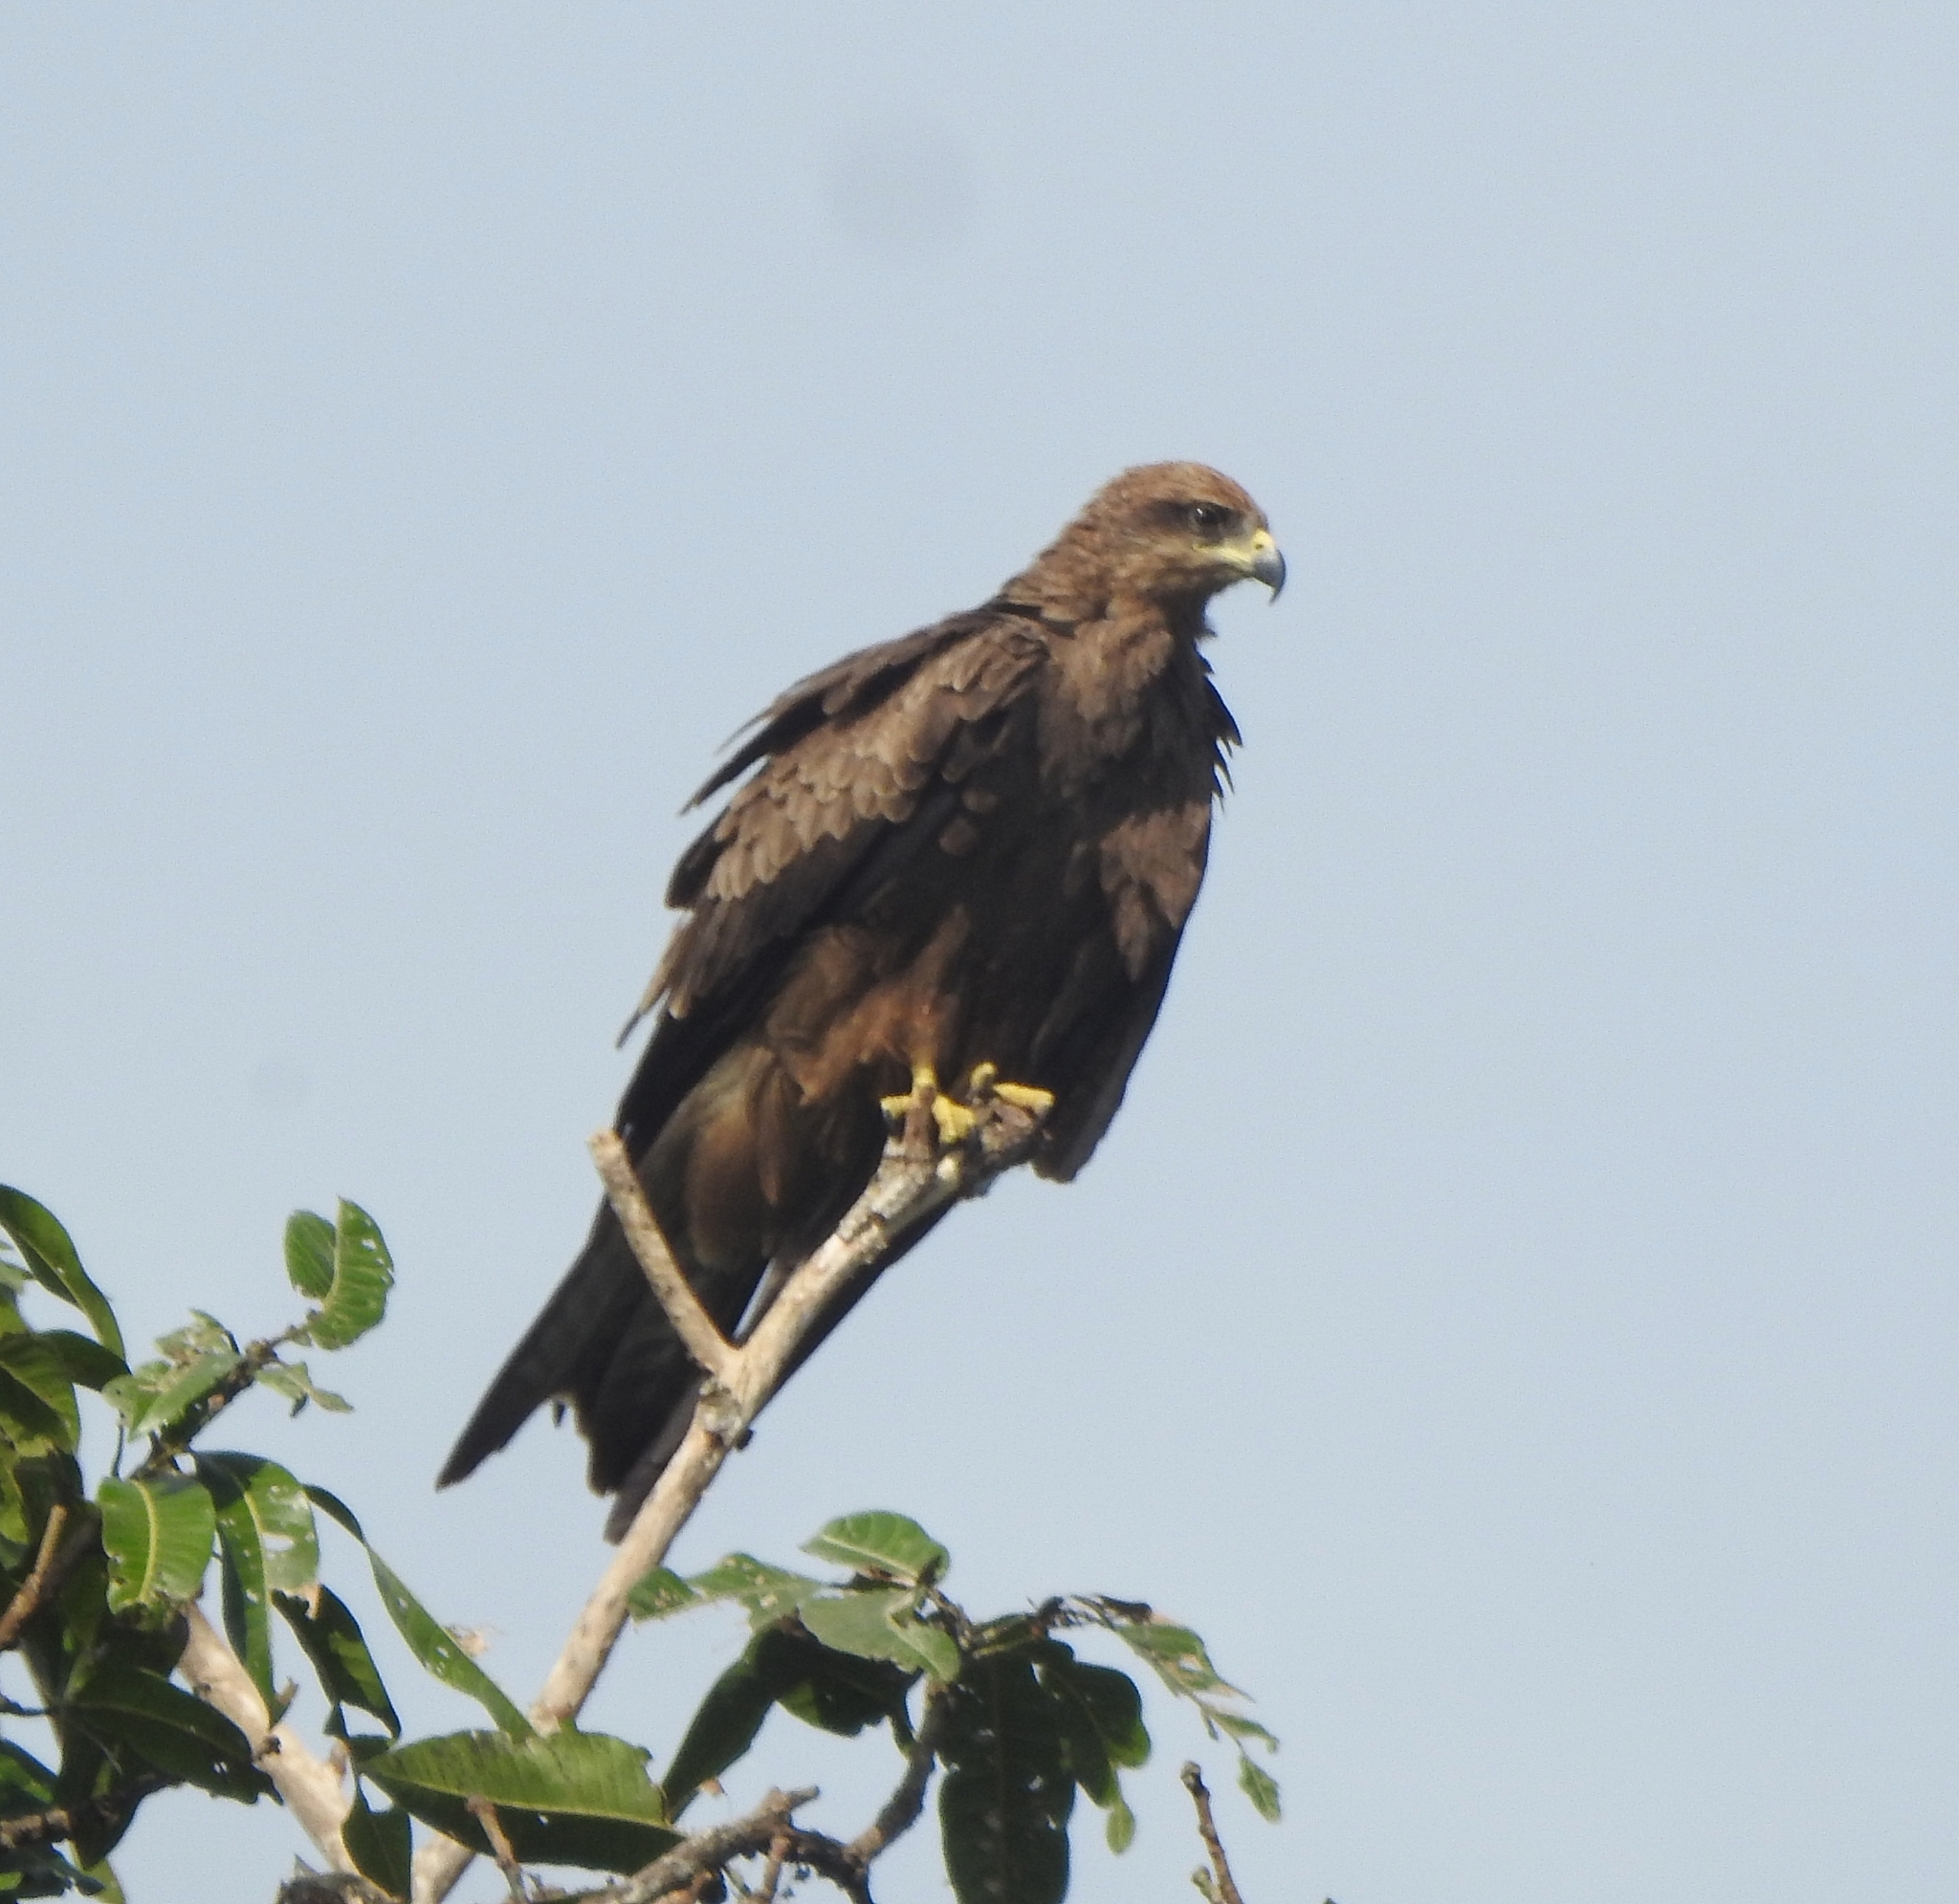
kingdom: Animalia
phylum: Chordata
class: Aves
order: Accipitriformes
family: Accipitridae
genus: Milvus
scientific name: Milvus migrans
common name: Black kite
